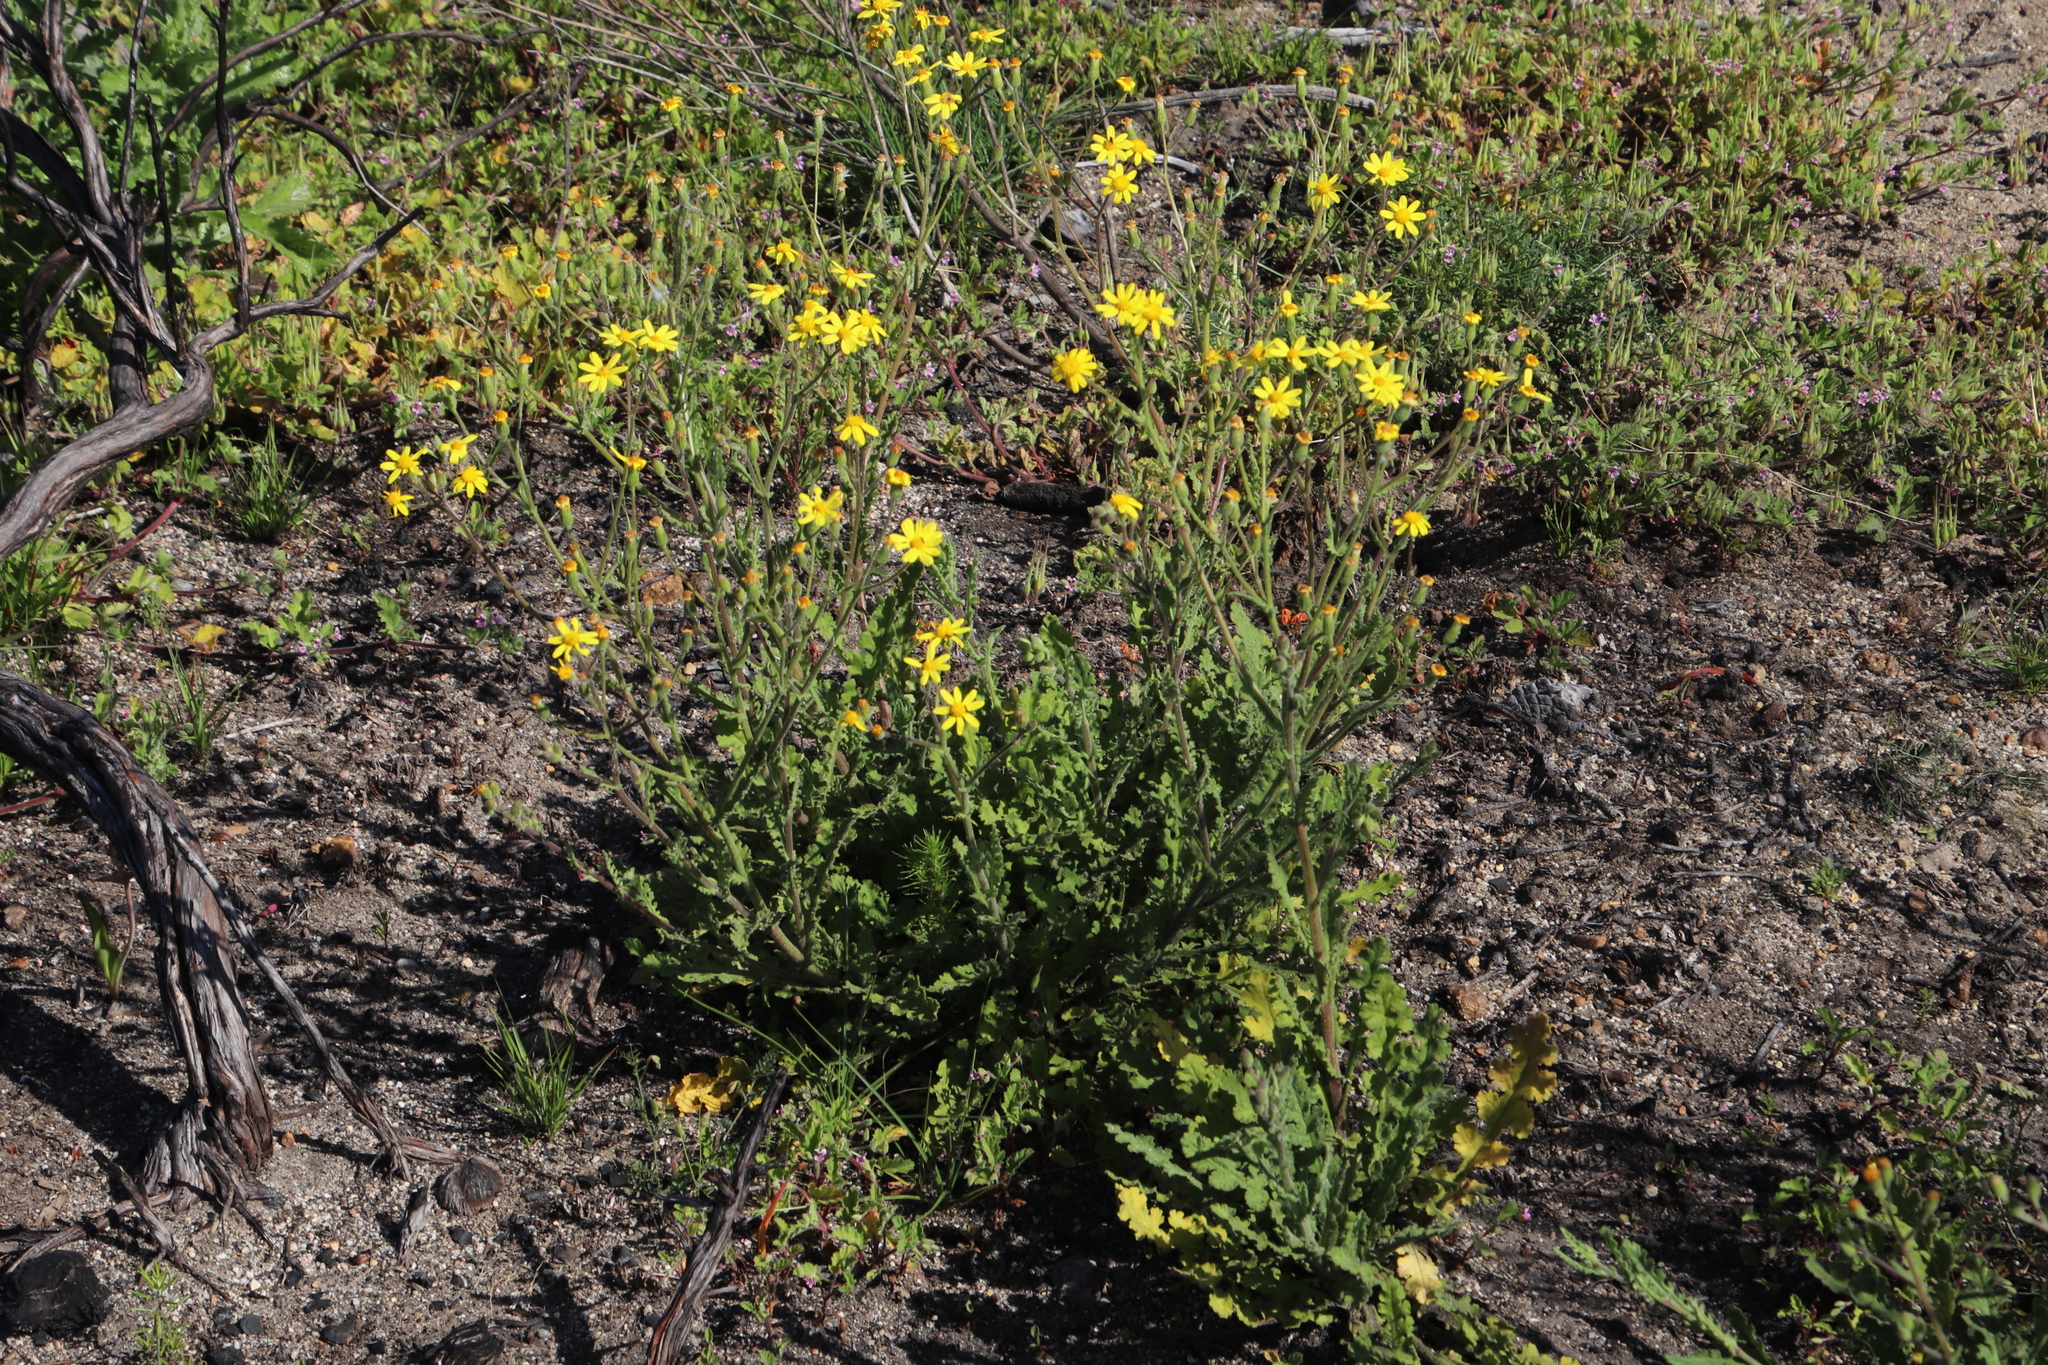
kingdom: Plantae
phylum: Tracheophyta
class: Magnoliopsida
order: Asterales
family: Asteraceae
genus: Senecio
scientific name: Senecio hastatus
